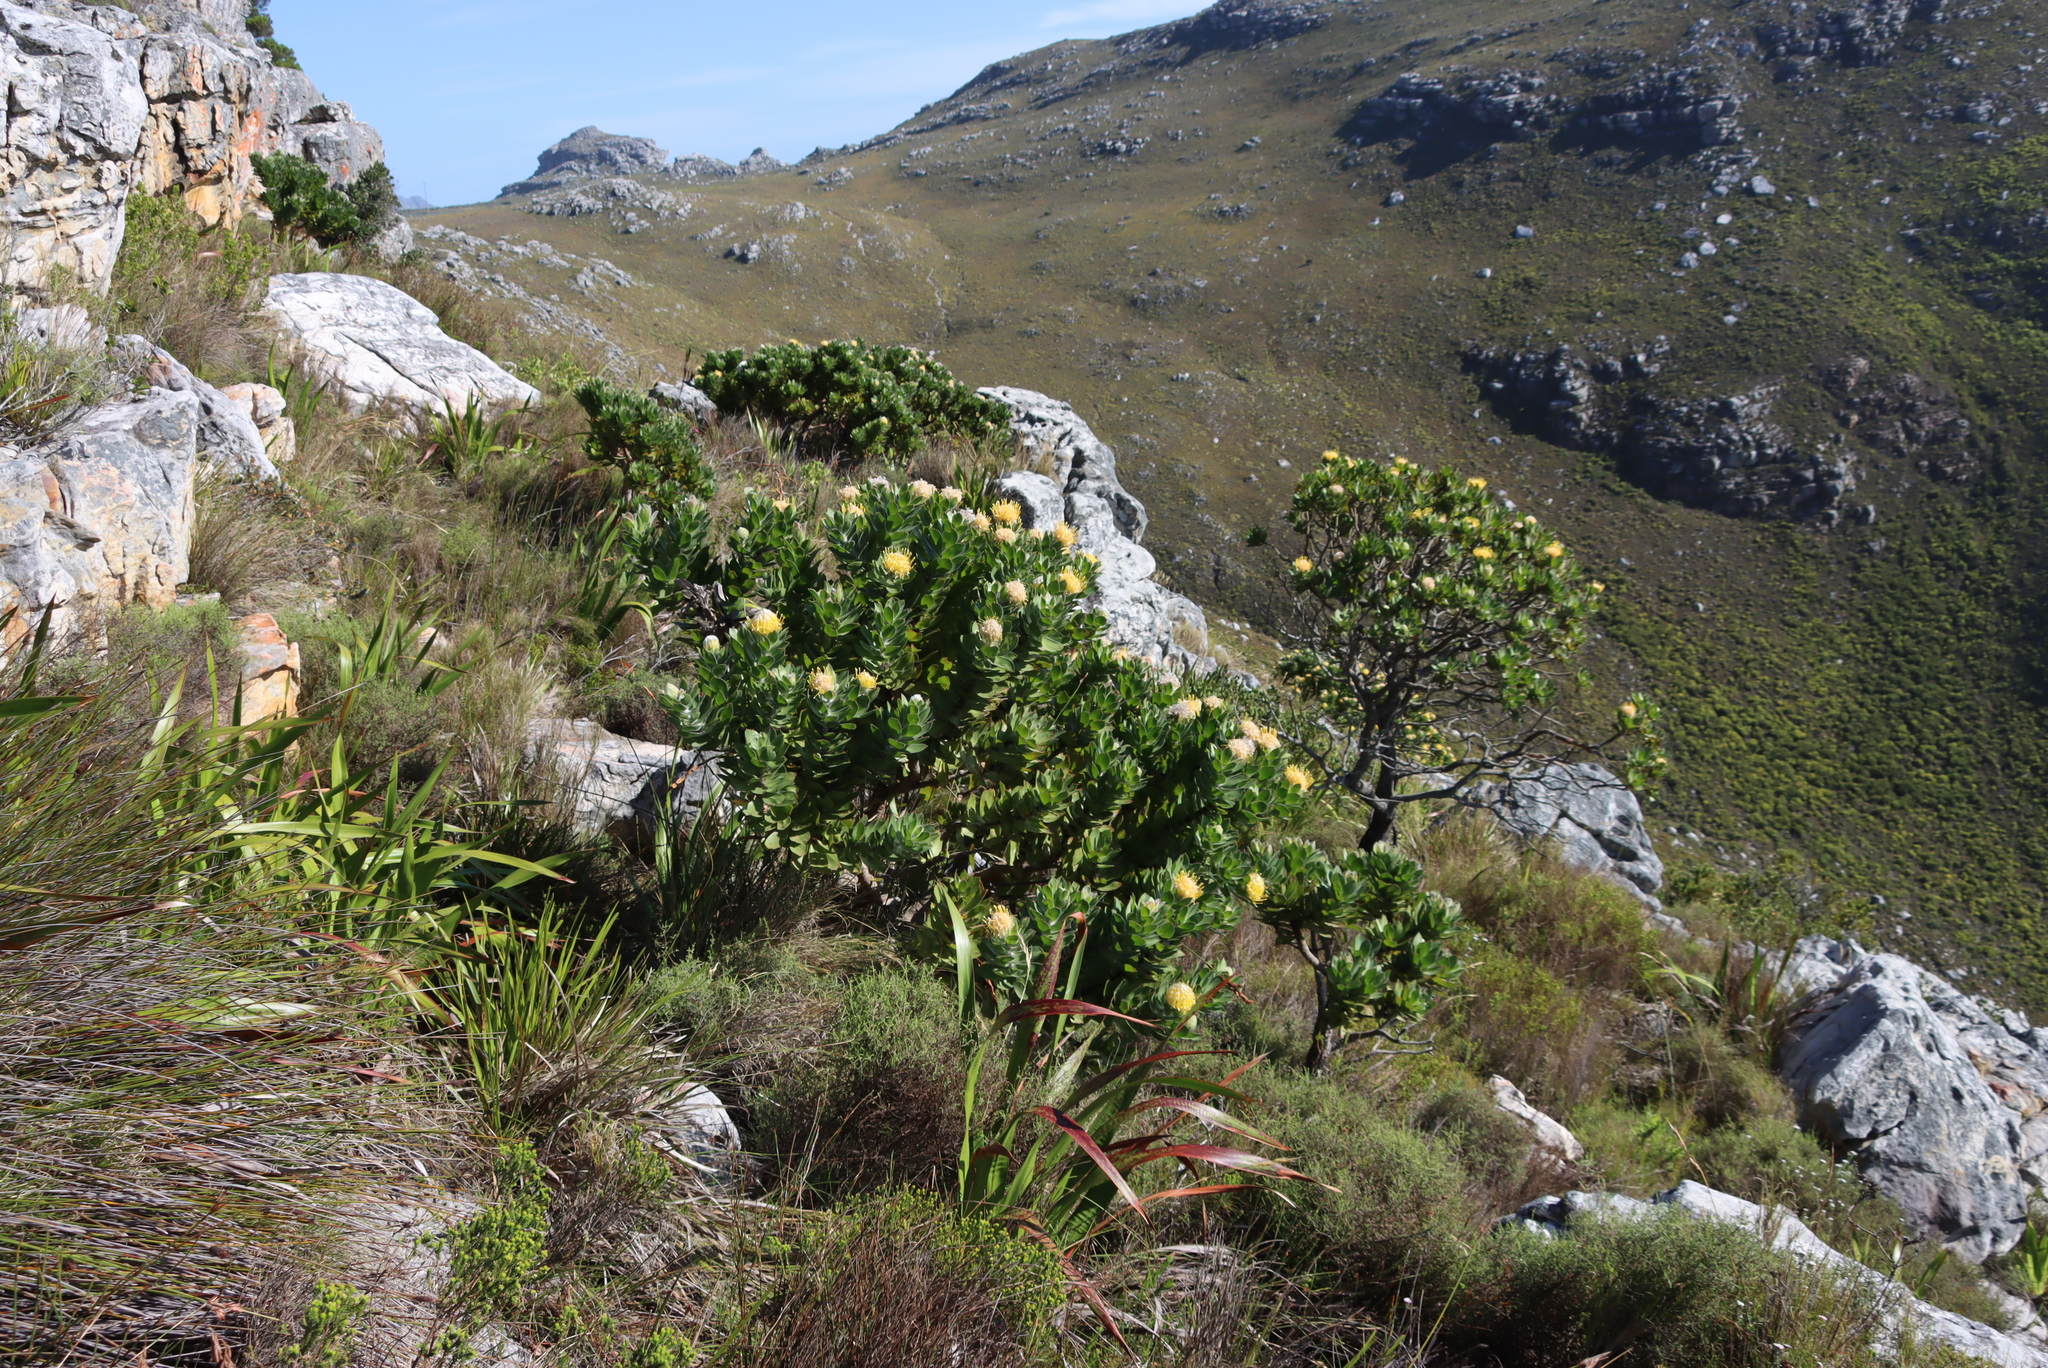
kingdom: Plantae
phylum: Tracheophyta
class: Magnoliopsida
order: Proteales
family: Proteaceae
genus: Leucospermum
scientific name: Leucospermum conocarpodendron
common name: Tree pincushion
